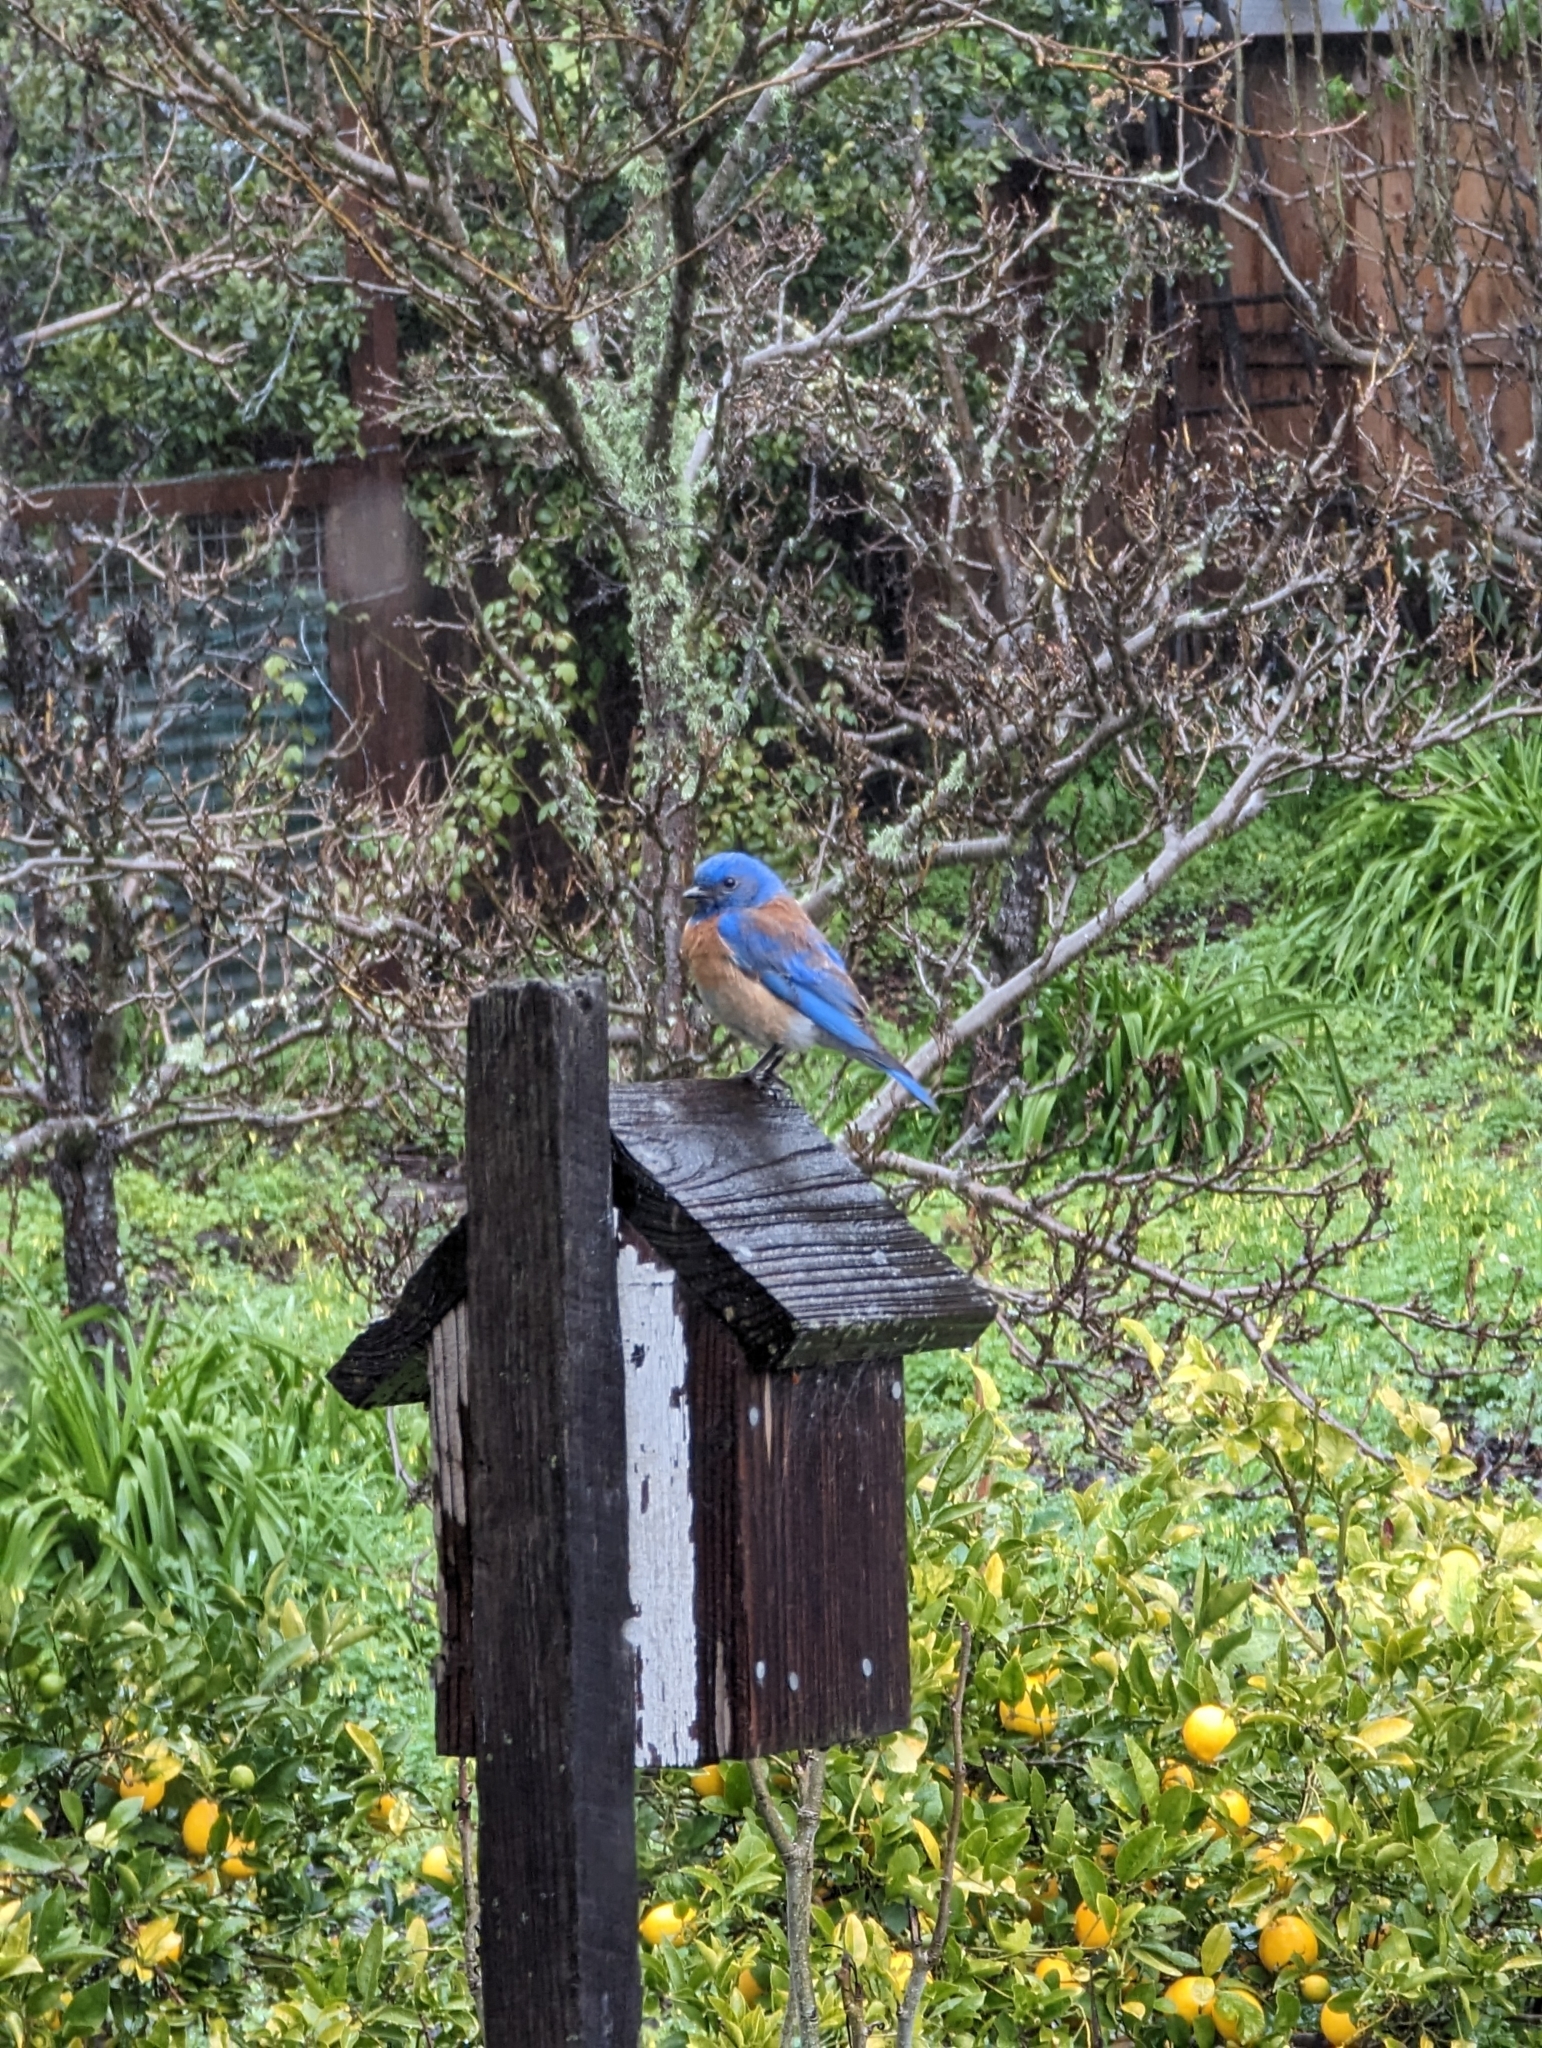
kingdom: Animalia
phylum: Chordata
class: Aves
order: Passeriformes
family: Turdidae
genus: Sialia
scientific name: Sialia mexicana
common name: Western bluebird
